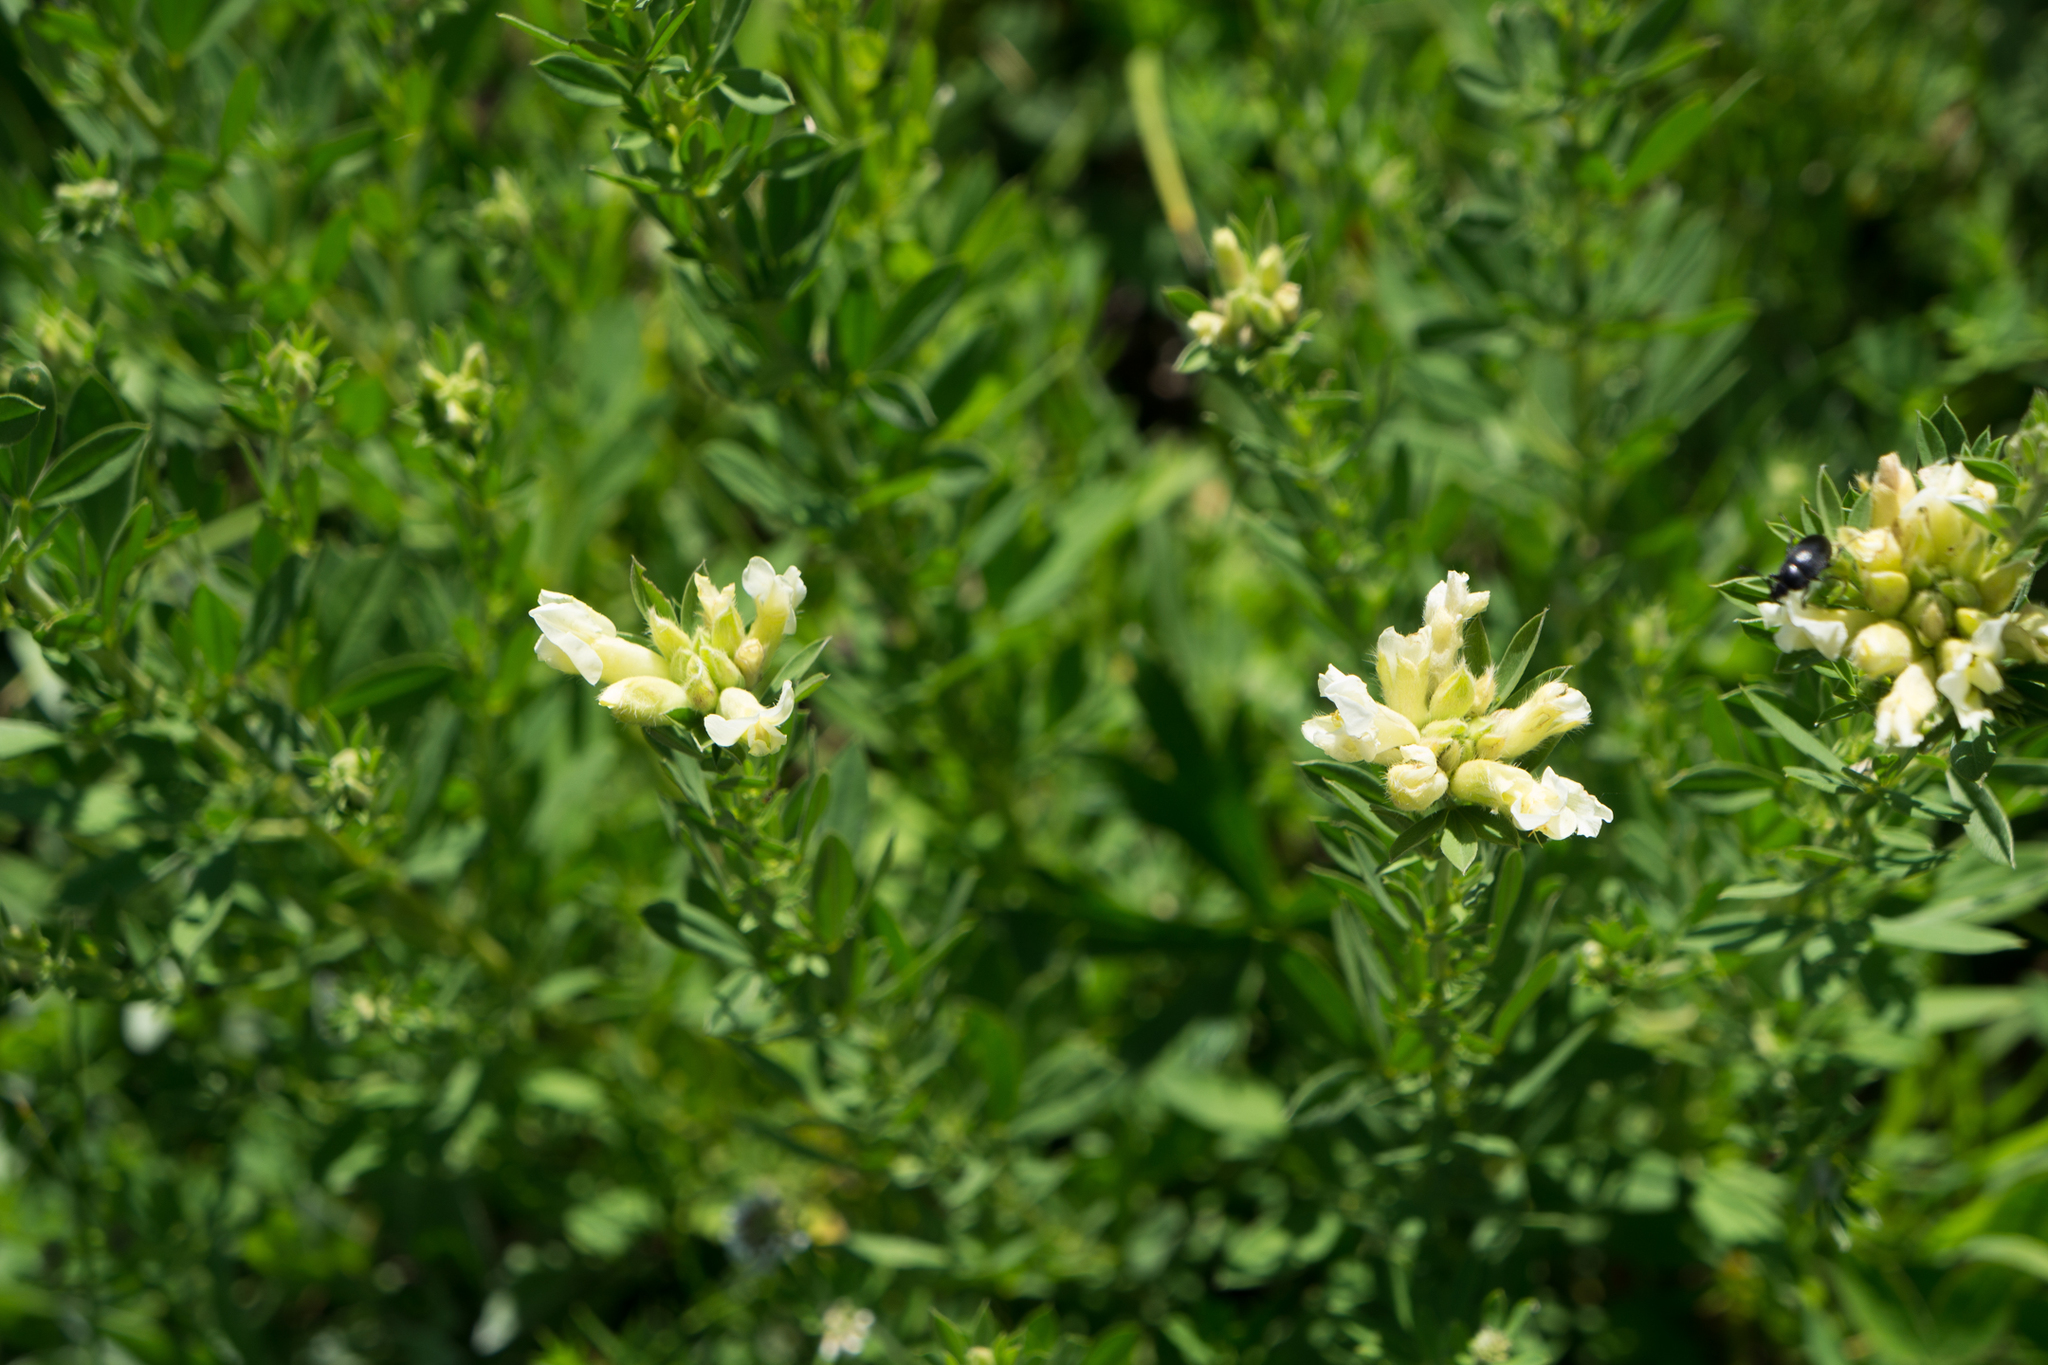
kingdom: Plantae
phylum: Tracheophyta
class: Magnoliopsida
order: Fabales
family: Fabaceae
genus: Chamaecytisus
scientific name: Chamaecytisus albus
